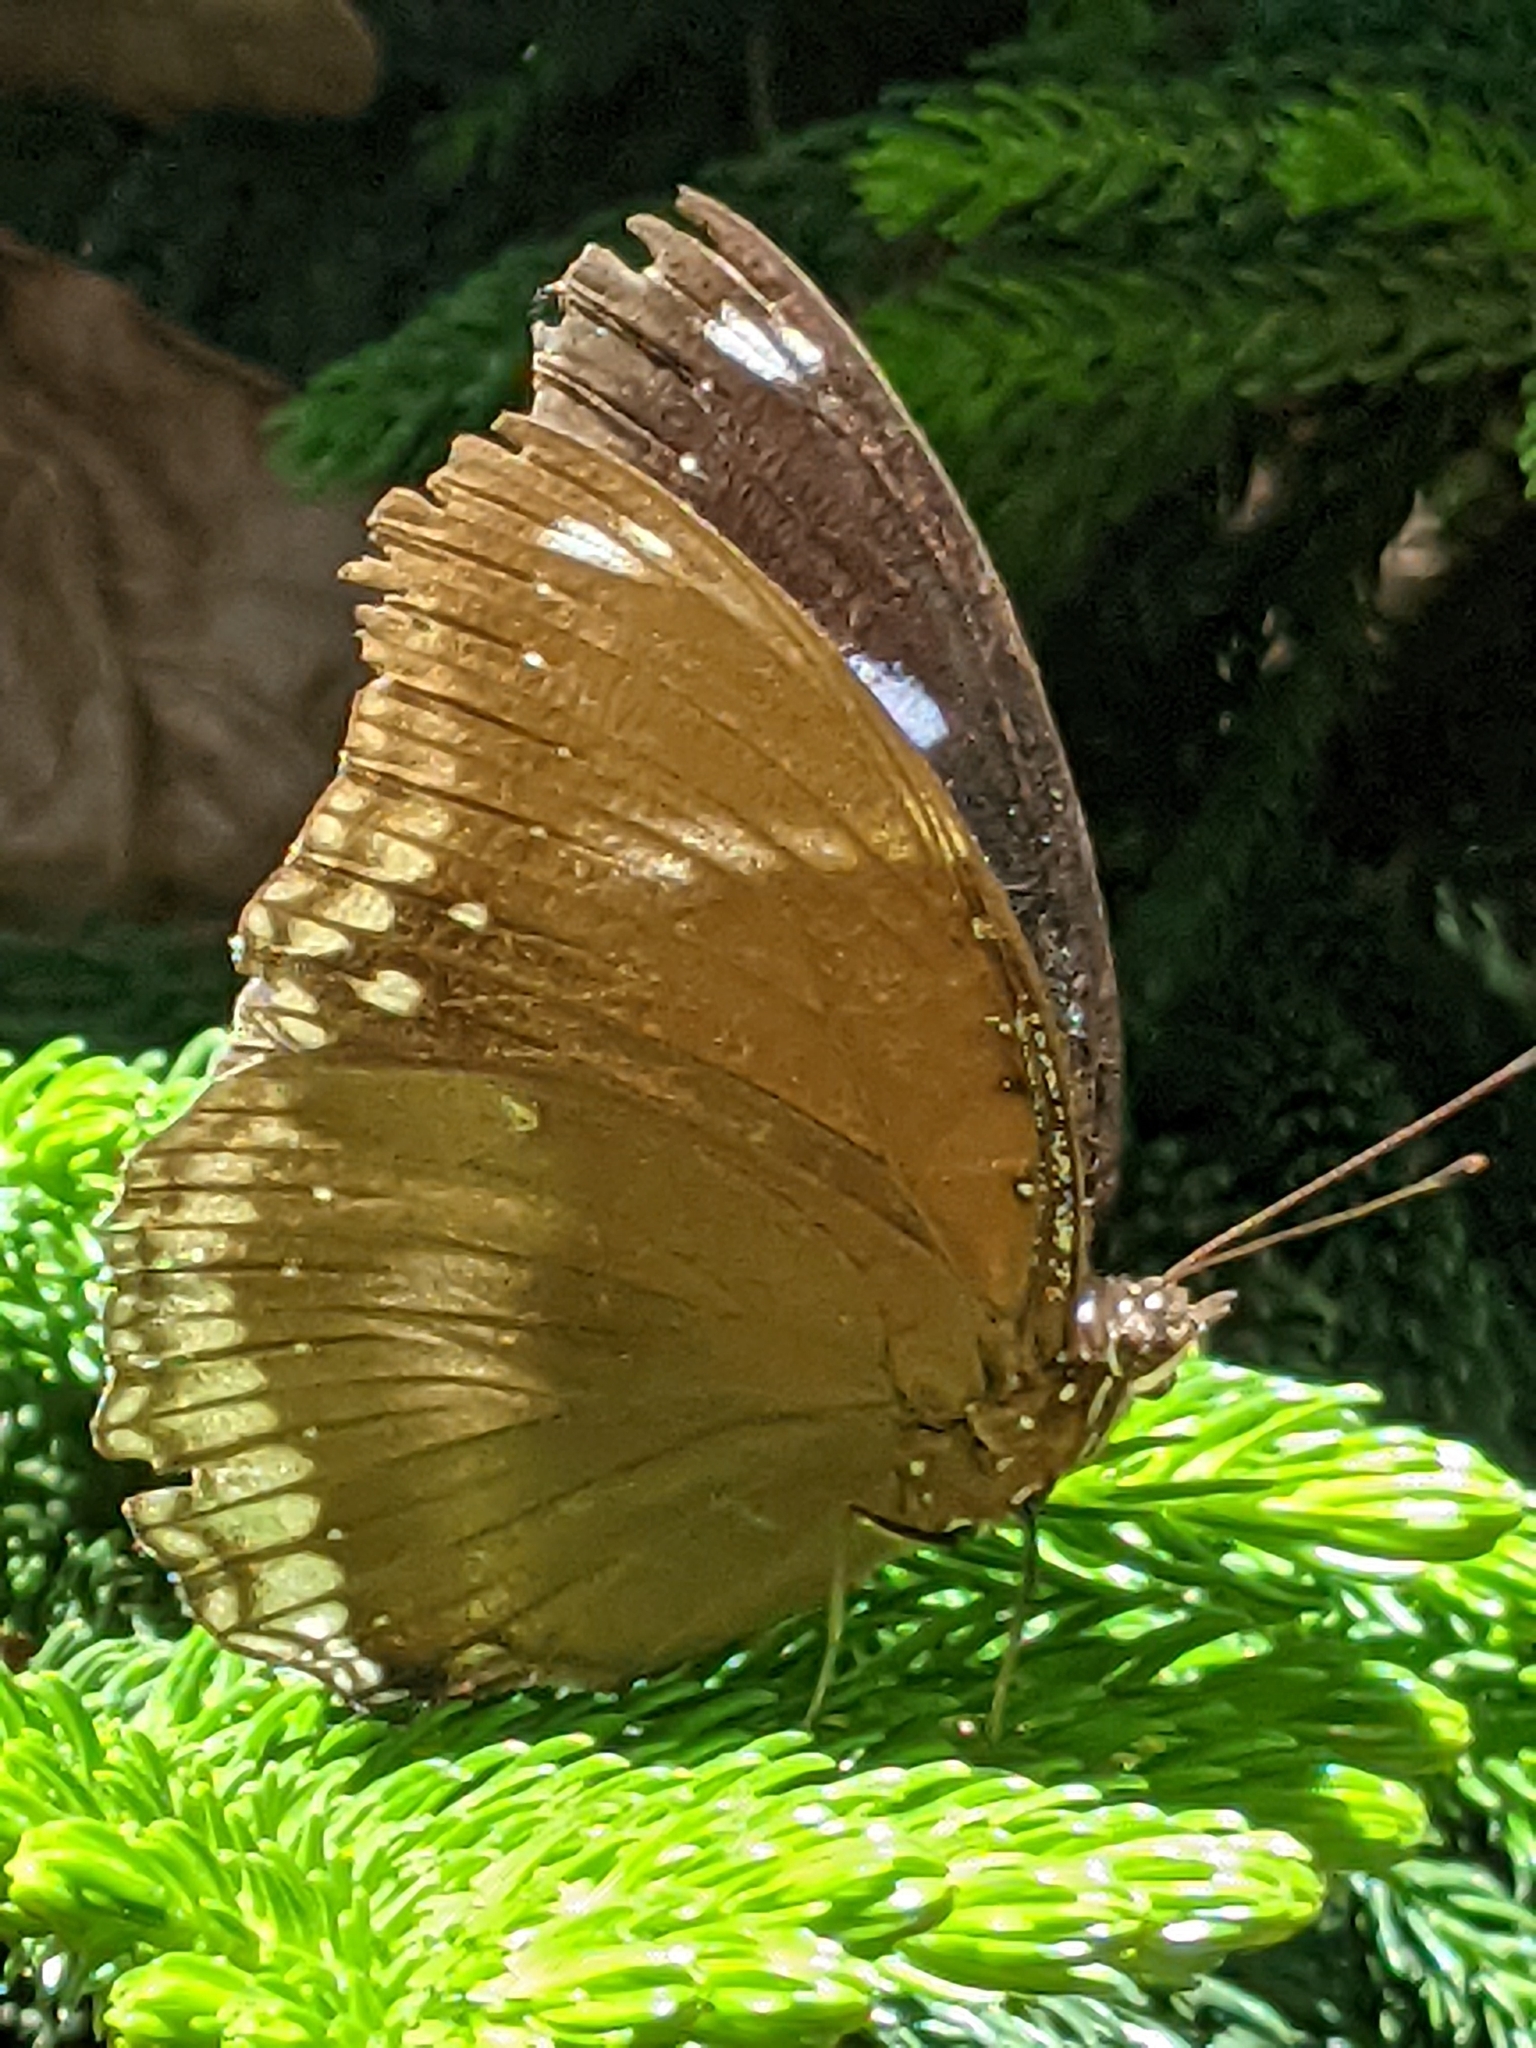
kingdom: Animalia
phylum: Arthropoda
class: Insecta
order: Lepidoptera
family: Nymphalidae
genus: Hypolimnas
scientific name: Hypolimnas bolina
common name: Great eggfly
